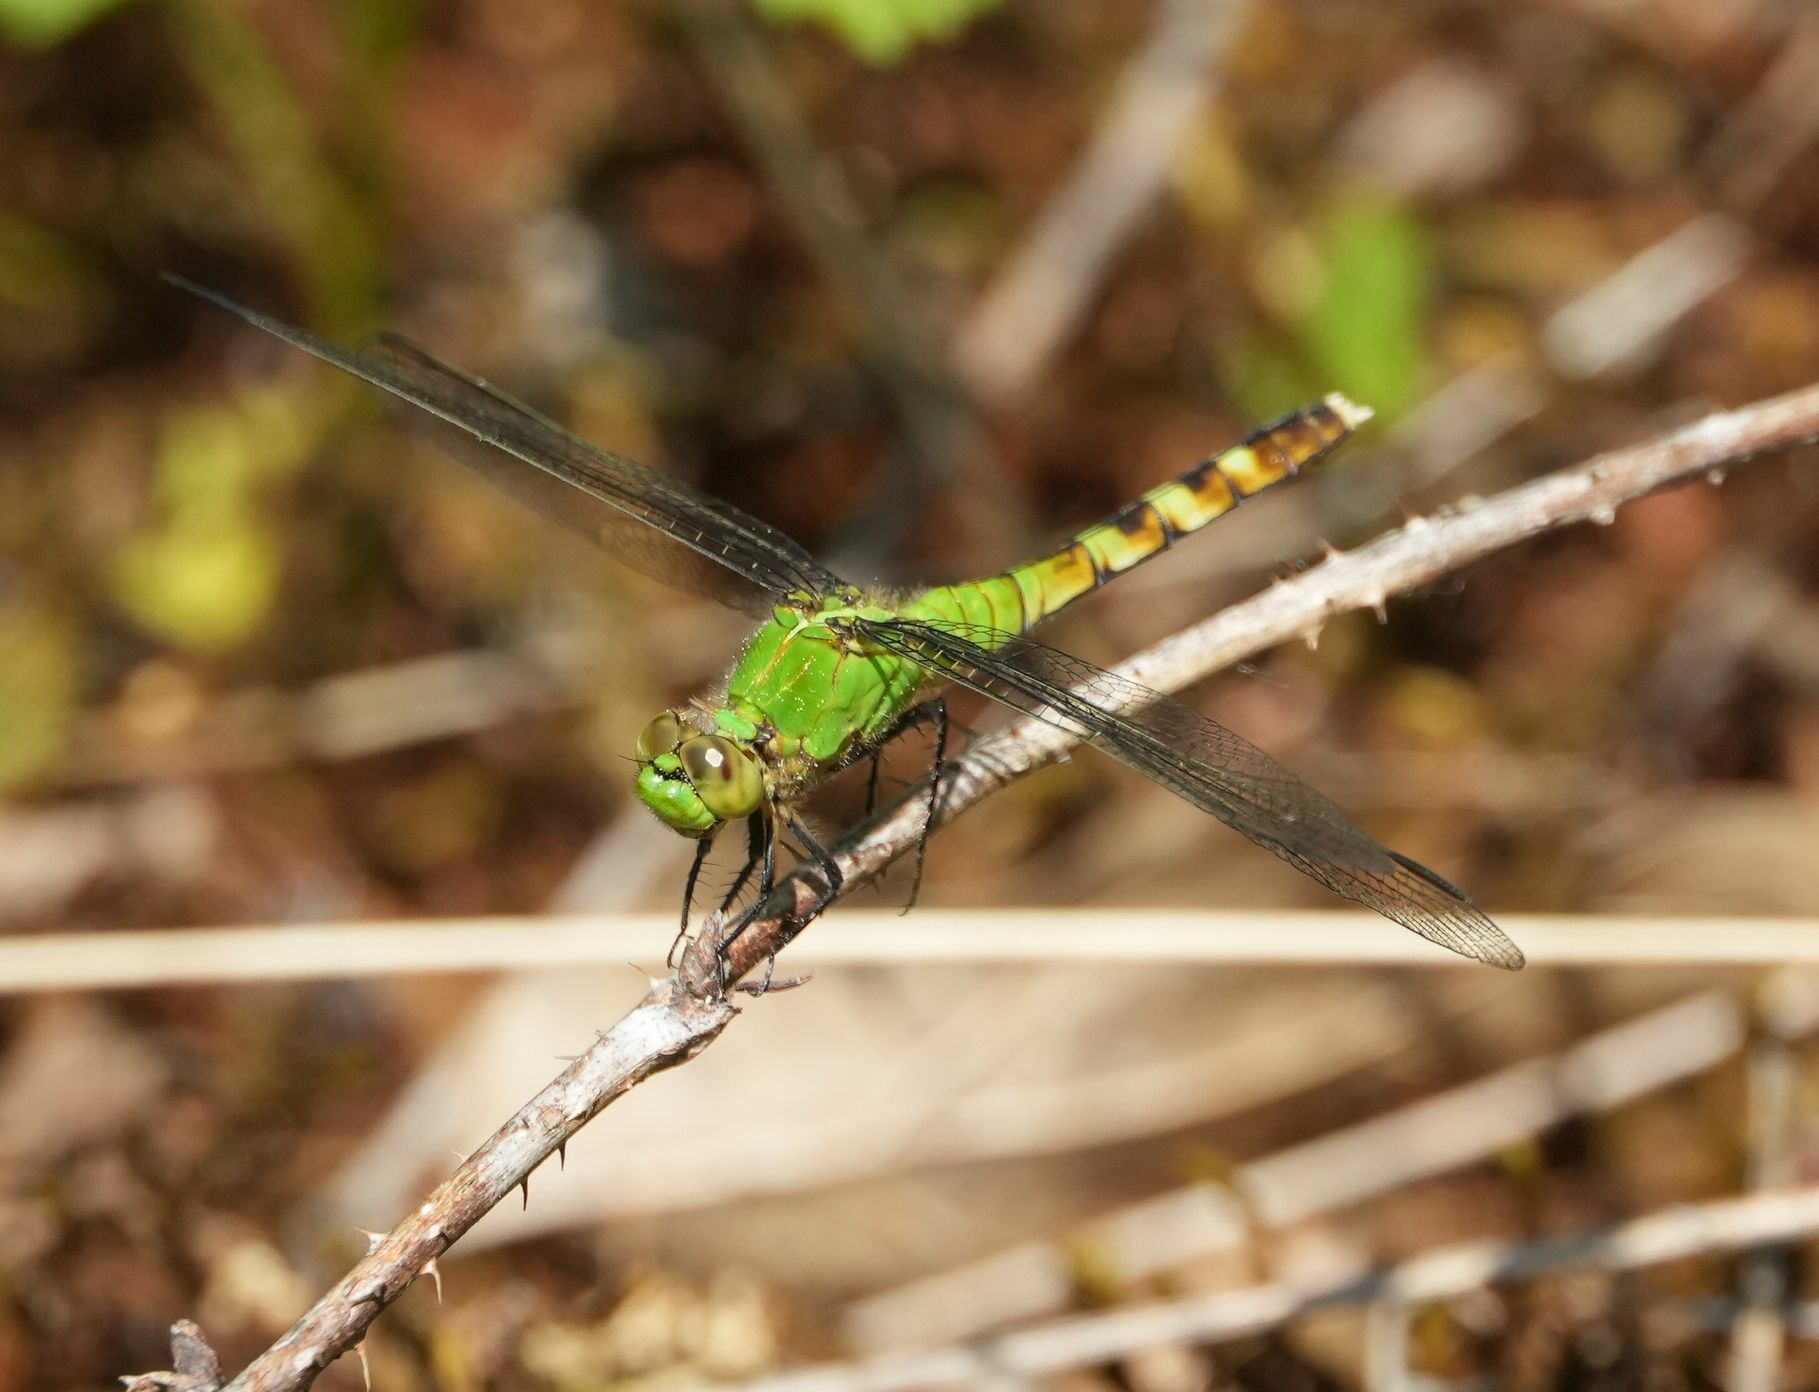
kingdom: Animalia
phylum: Arthropoda
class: Insecta
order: Odonata
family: Libellulidae
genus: Erythemis
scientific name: Erythemis simplicicollis
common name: Eastern pondhawk
